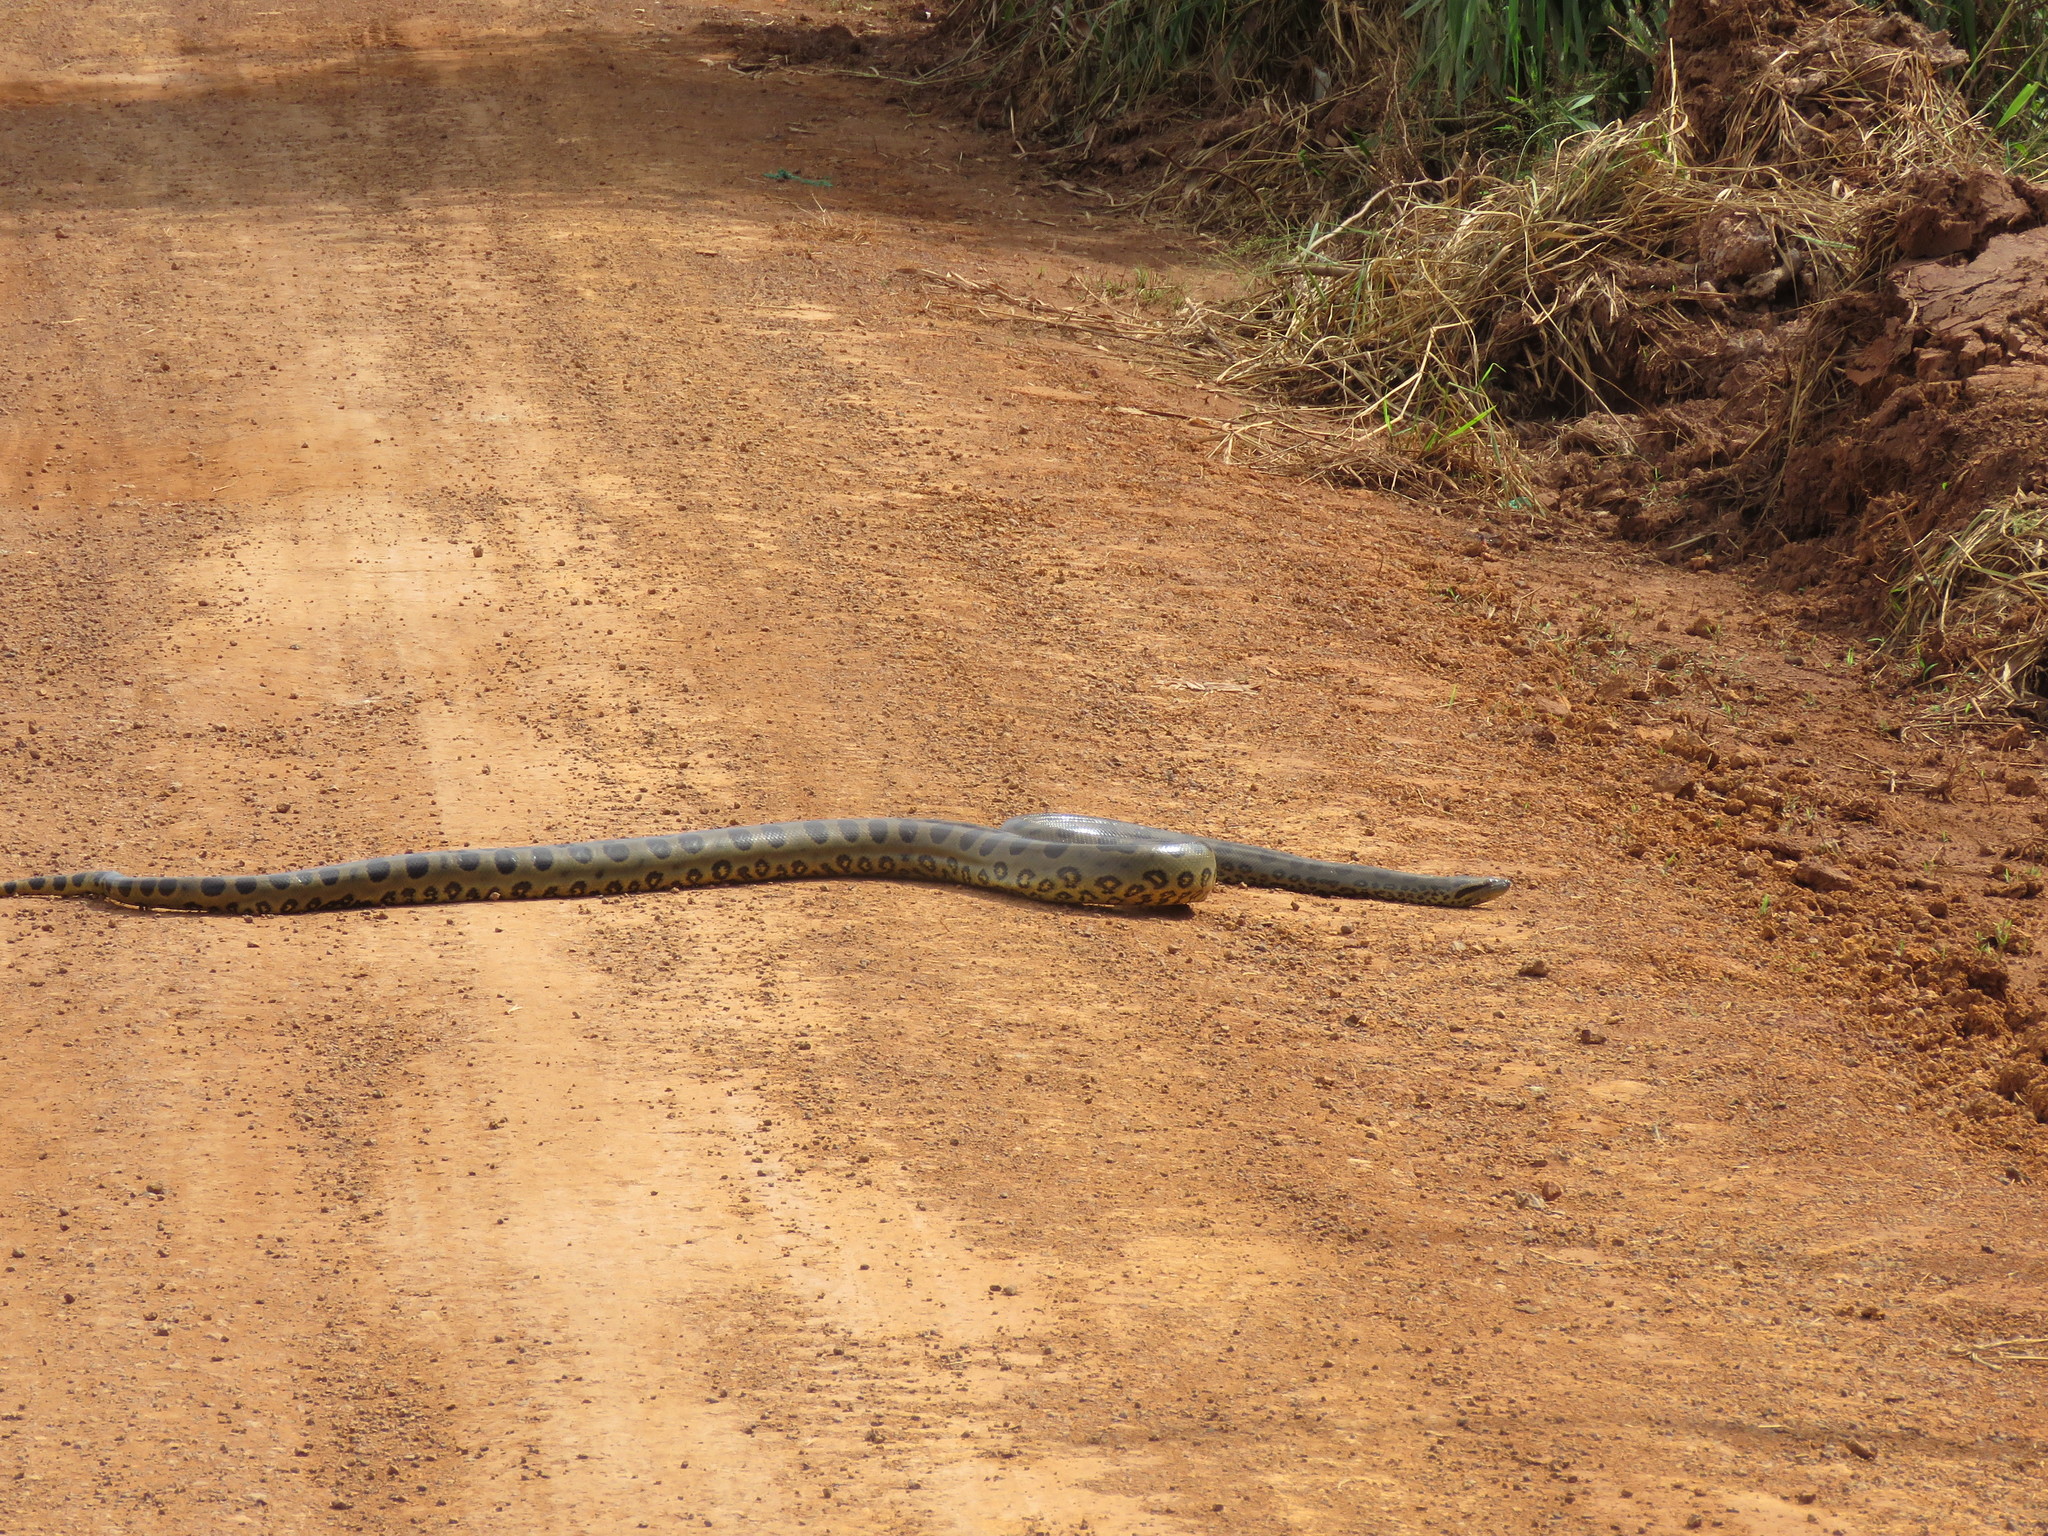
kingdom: Animalia
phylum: Chordata
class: Squamata
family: Boidae
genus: Eunectes
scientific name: Eunectes murinus
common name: Anaconda
